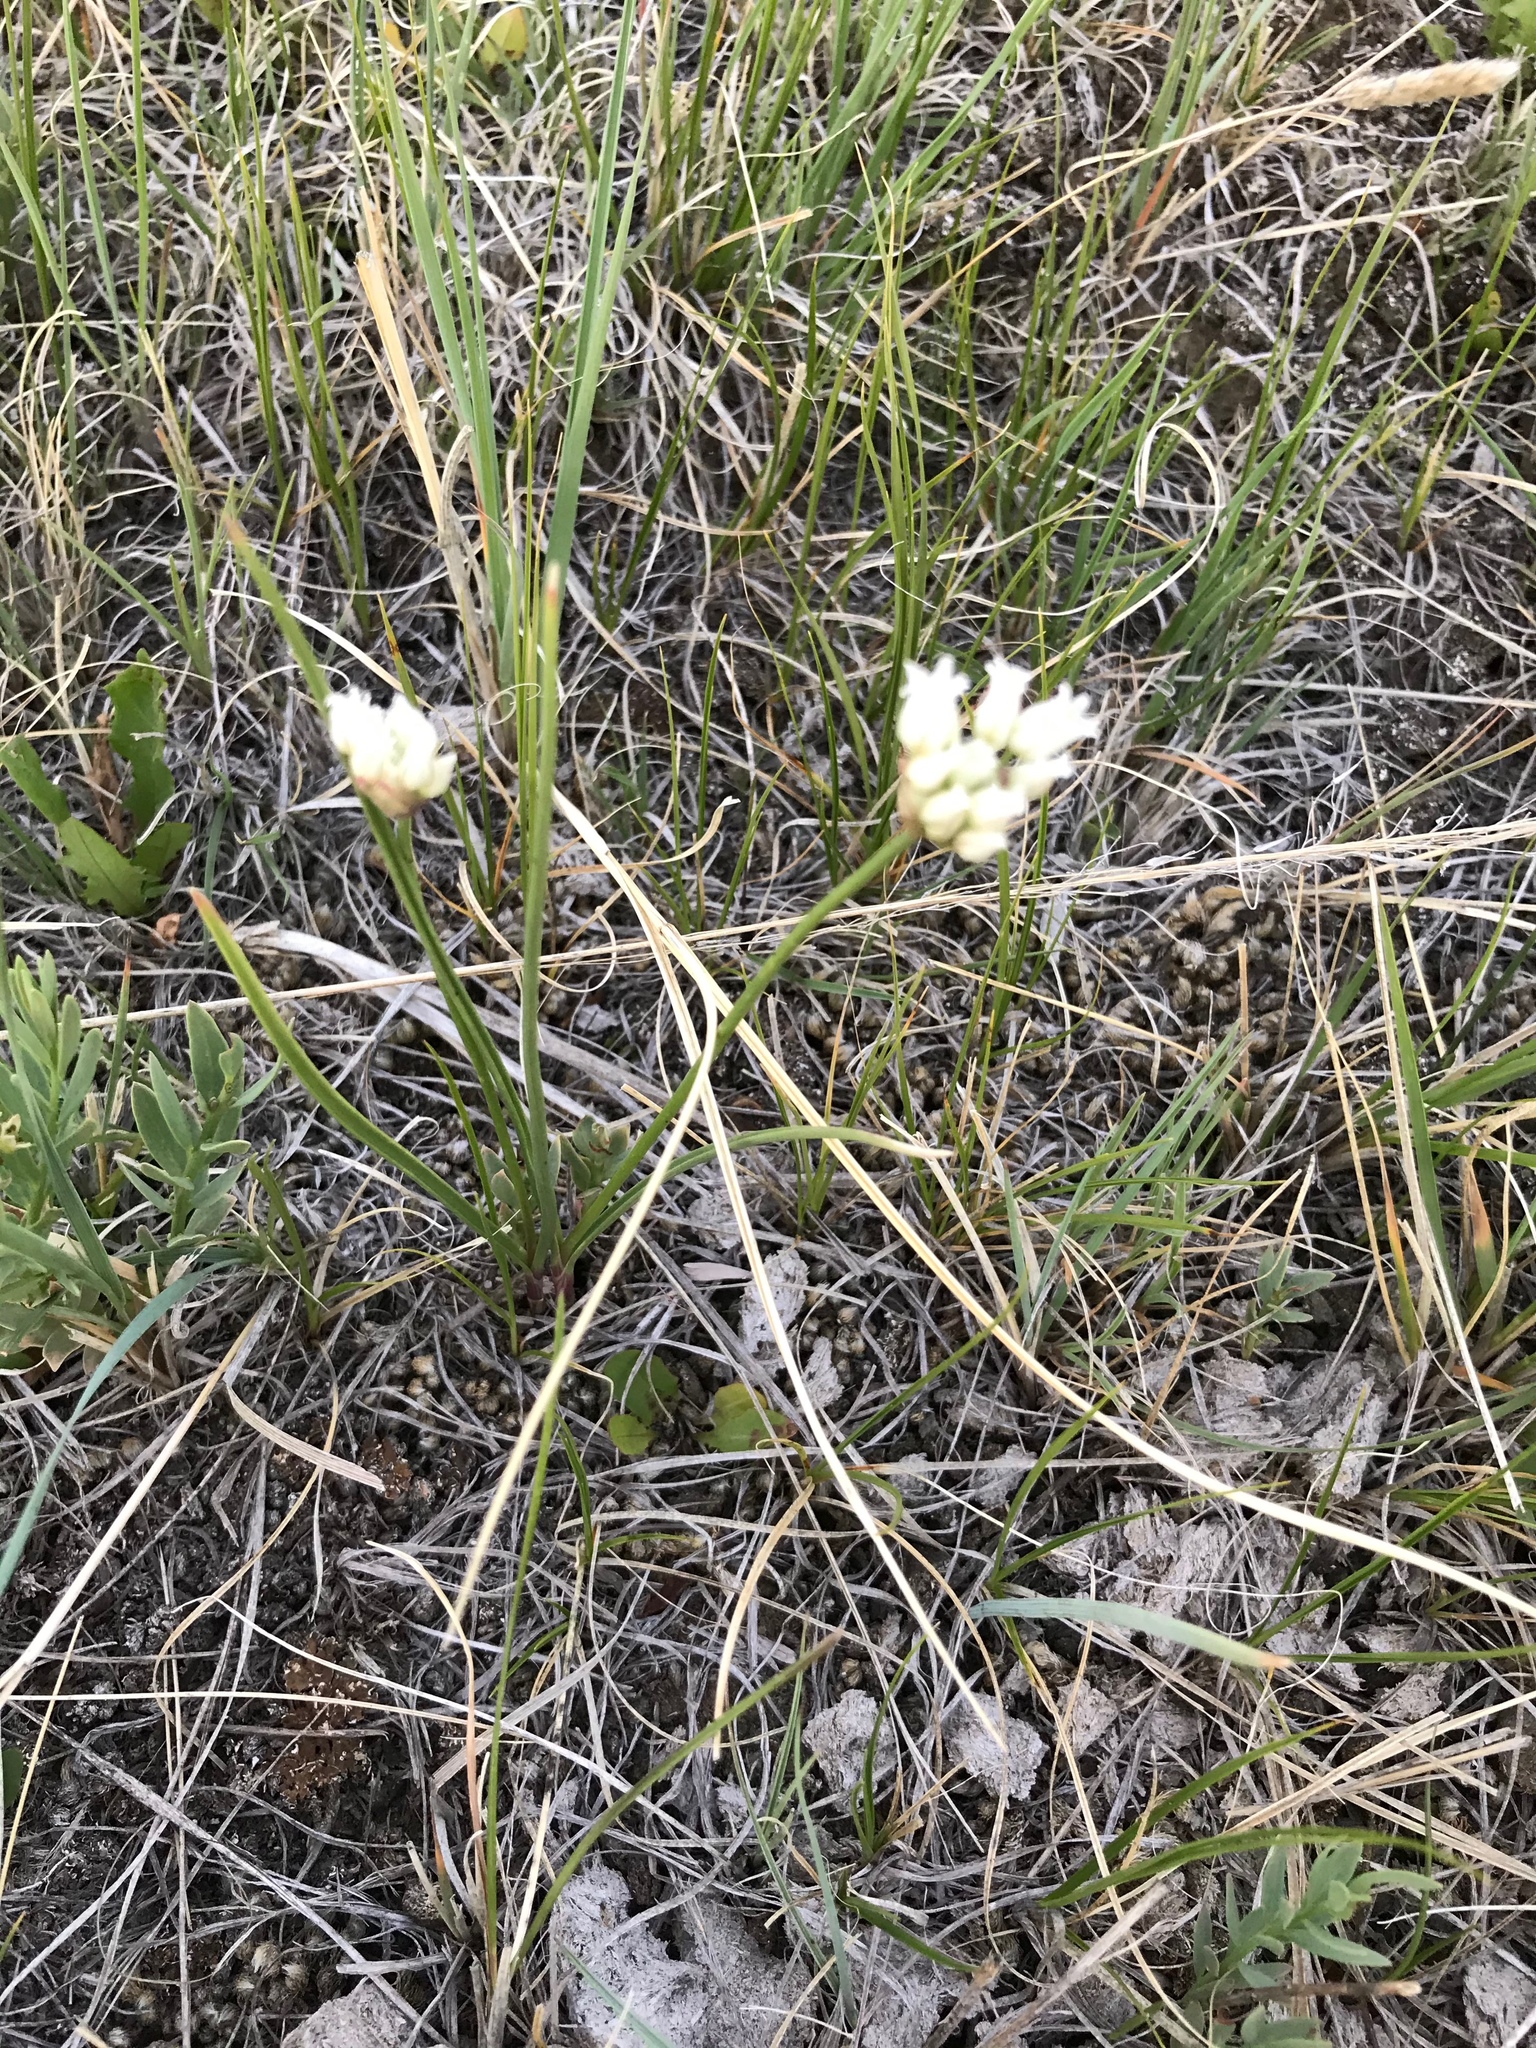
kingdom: Plantae
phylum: Tracheophyta
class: Liliopsida
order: Asparagales
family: Amaryllidaceae
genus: Allium
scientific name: Allium textile
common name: Prairie onion
